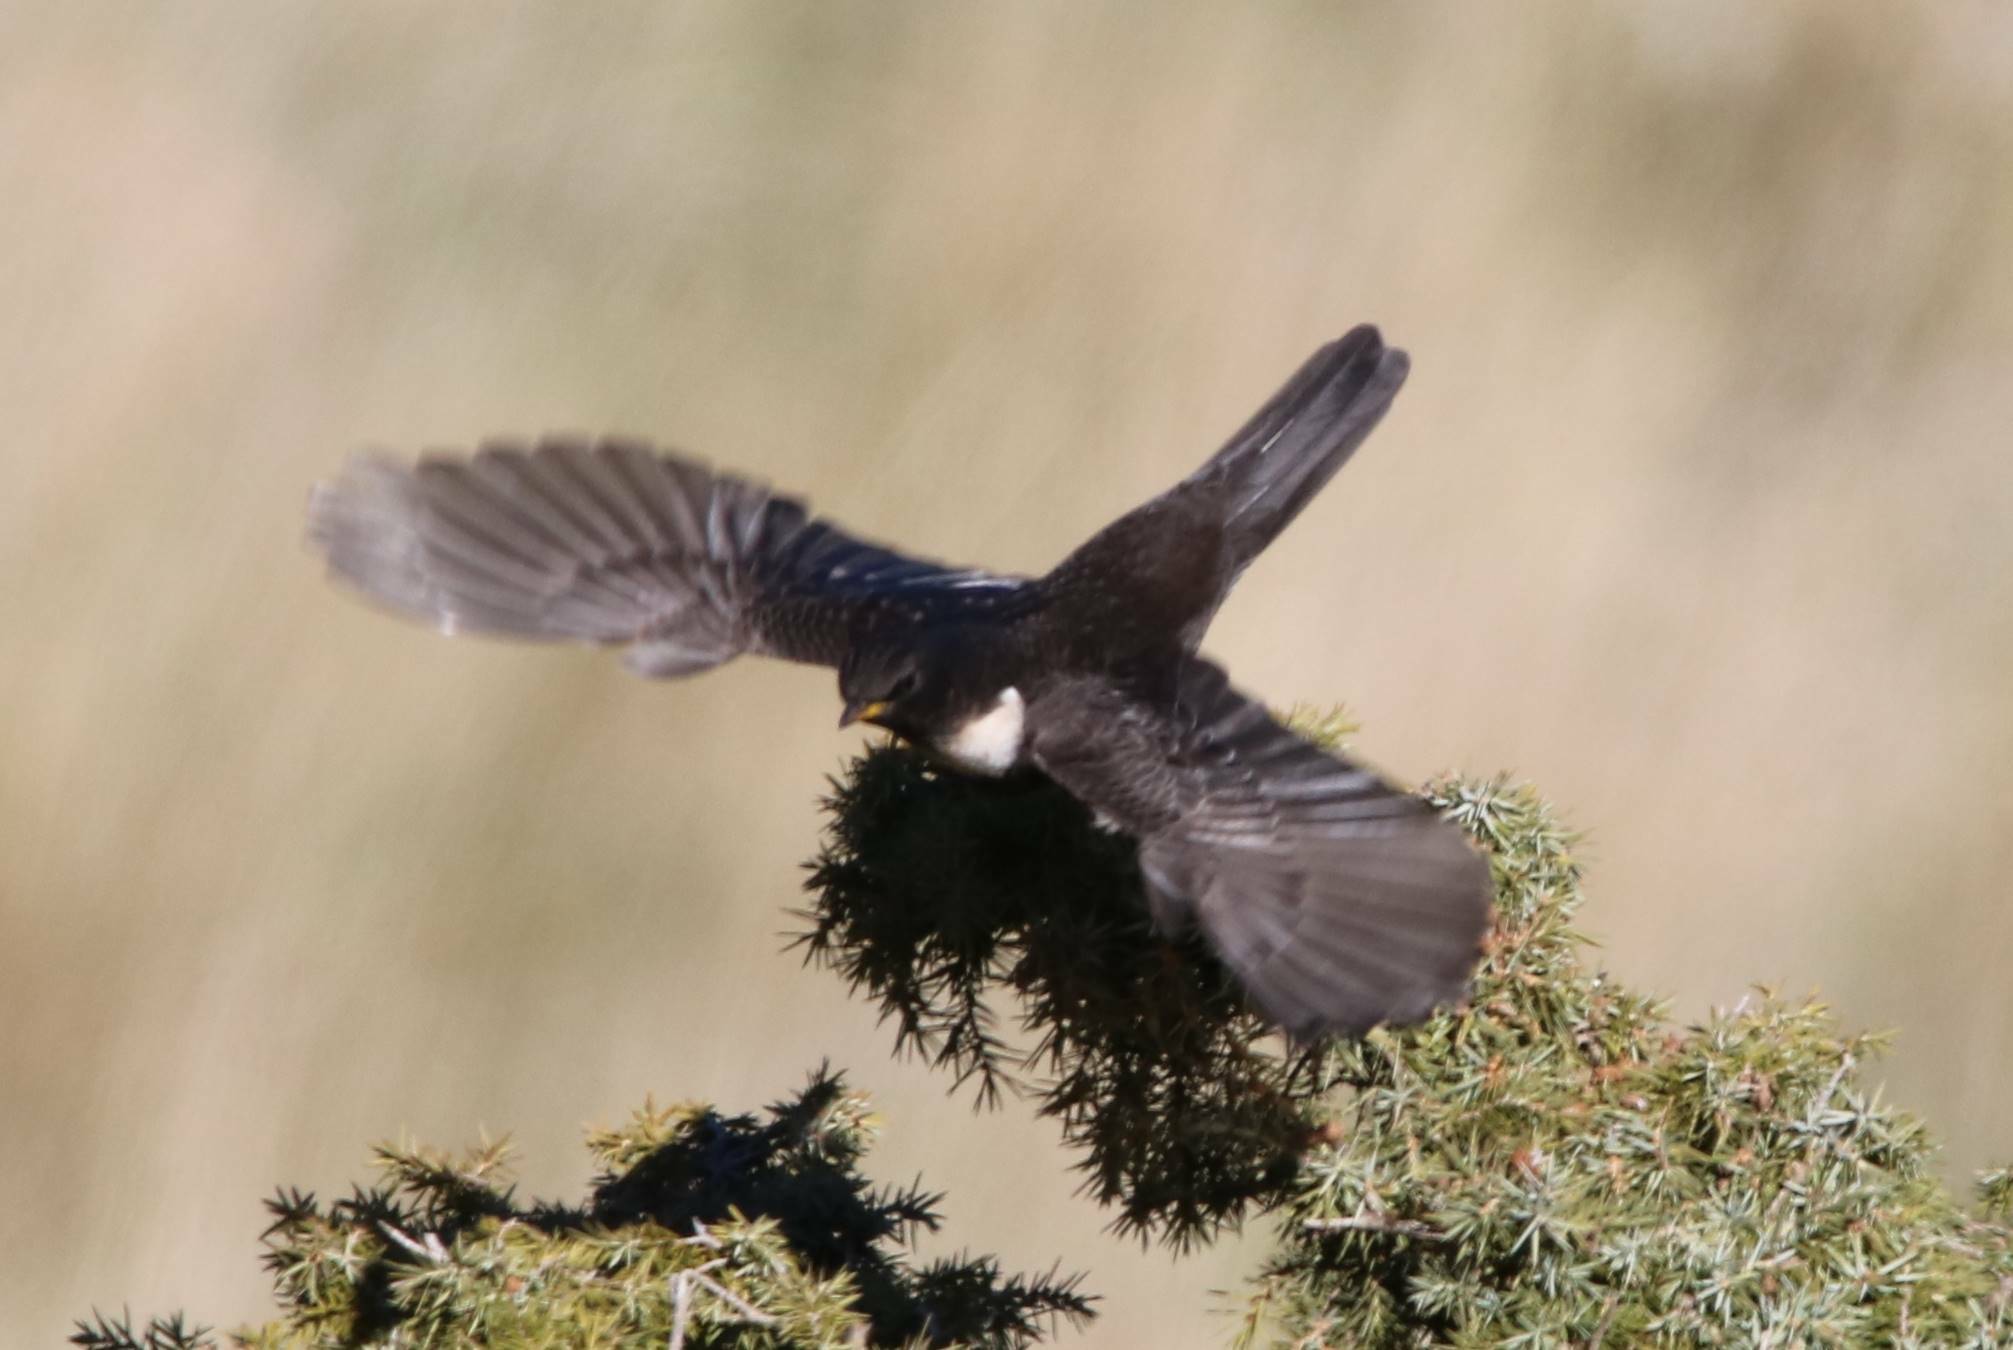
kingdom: Animalia
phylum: Chordata
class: Aves
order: Passeriformes
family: Turdidae
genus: Turdus
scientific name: Turdus torquatus
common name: Ring ouzel
